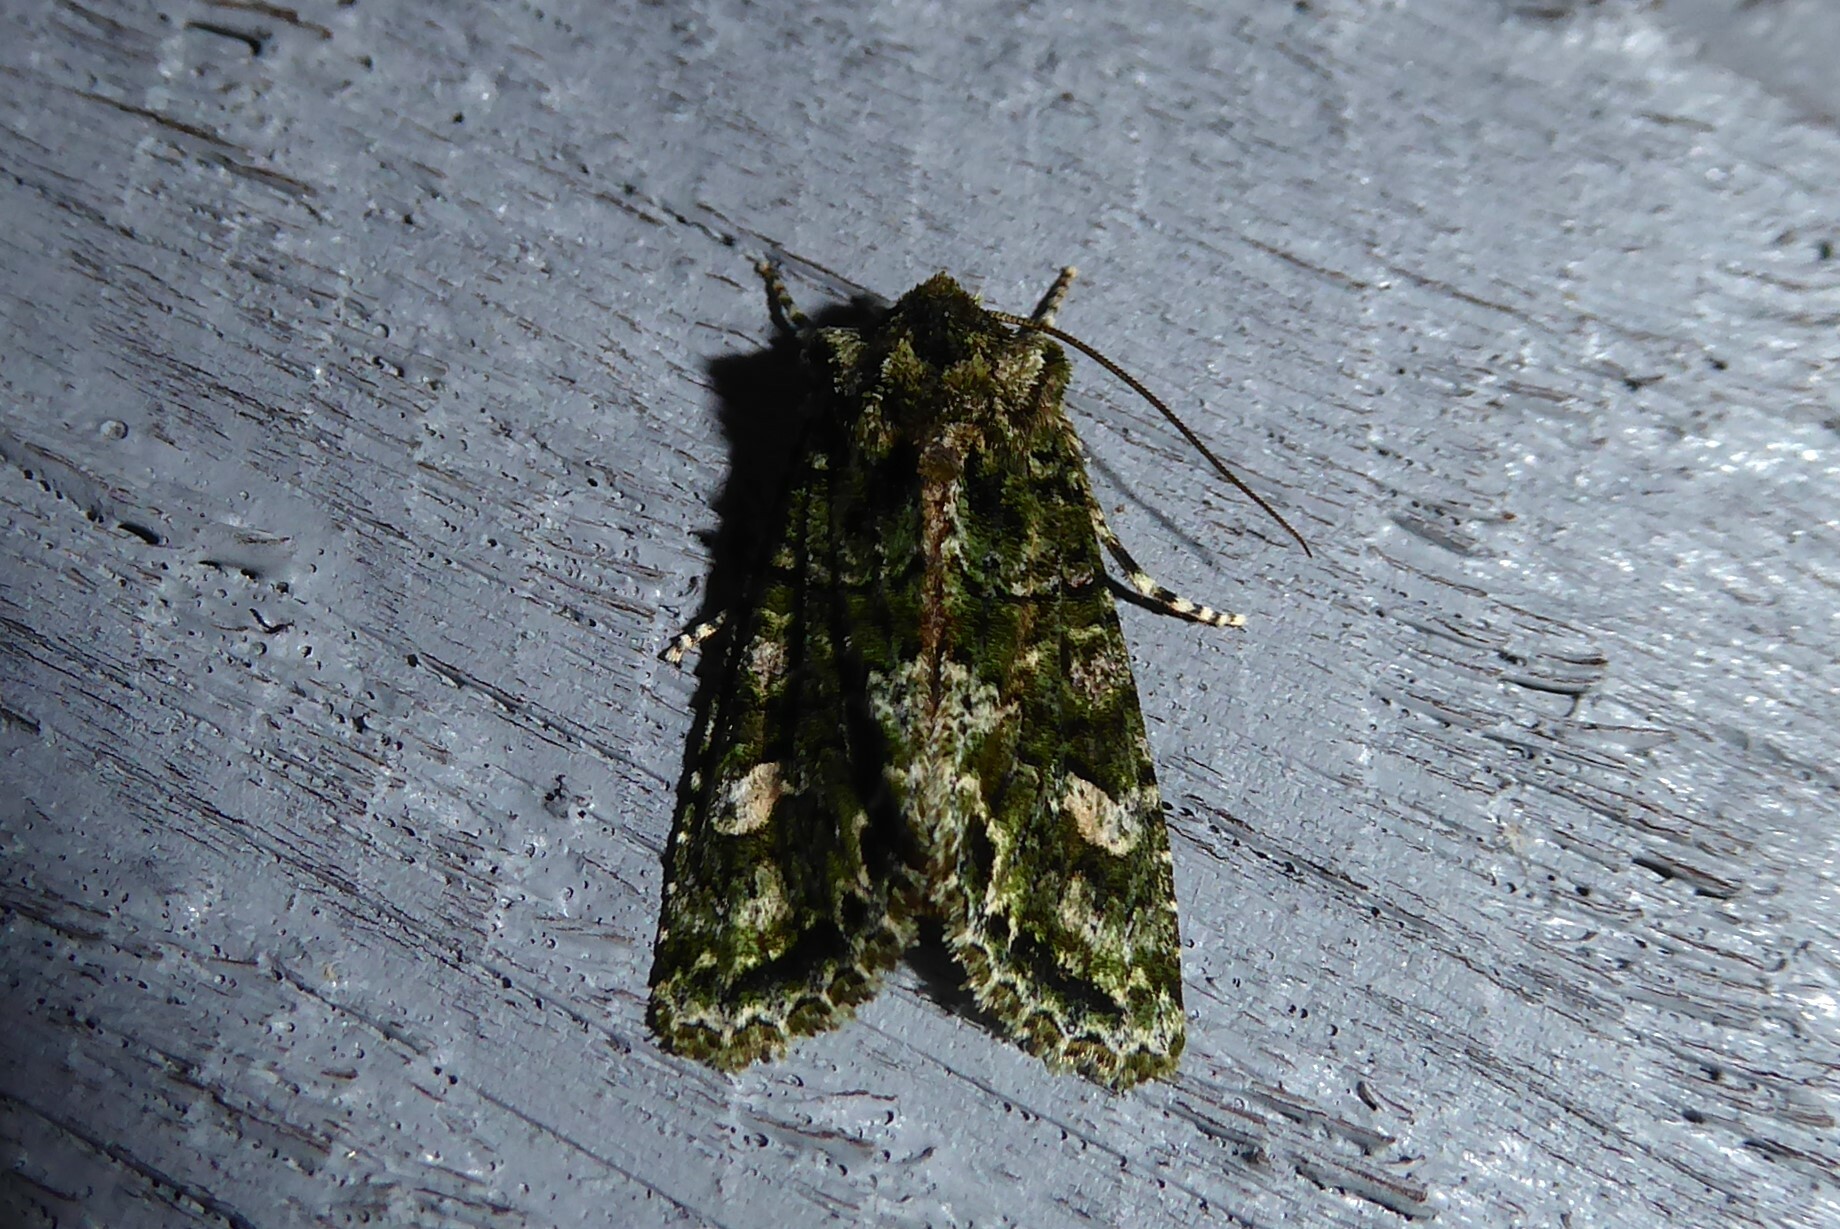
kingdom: Animalia
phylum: Arthropoda
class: Insecta
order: Lepidoptera
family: Noctuidae
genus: Ichneutica
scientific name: Ichneutica
